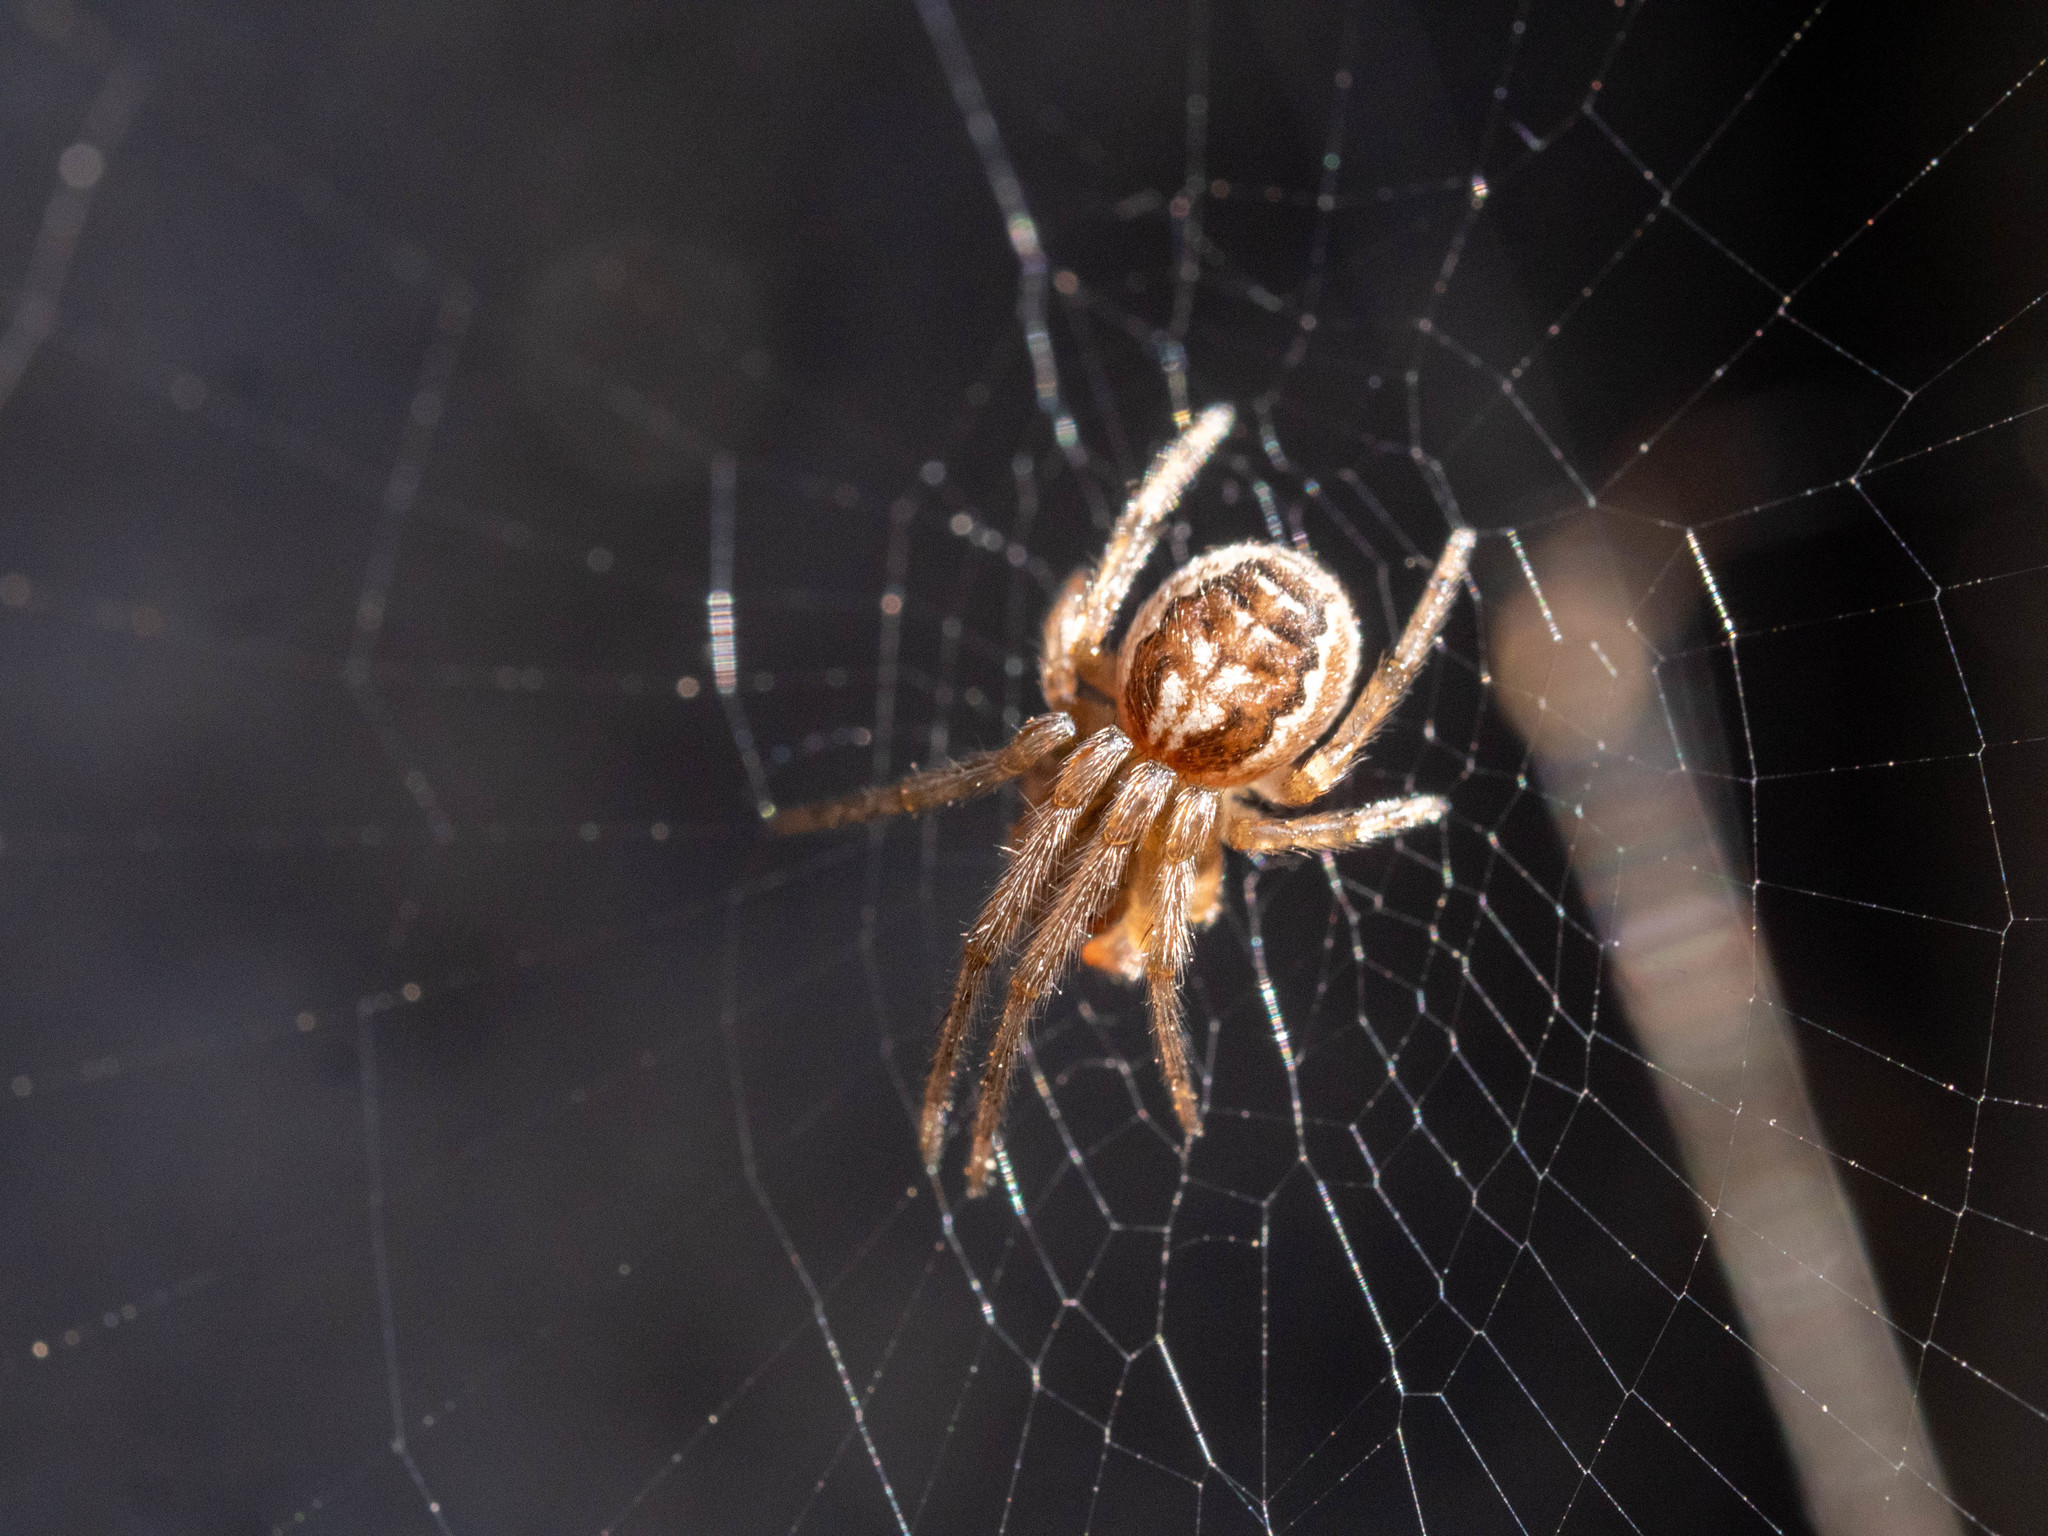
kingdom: Animalia
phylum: Arthropoda
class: Arachnida
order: Araneae
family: Araneidae
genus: Zygiella
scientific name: Zygiella x-notata
